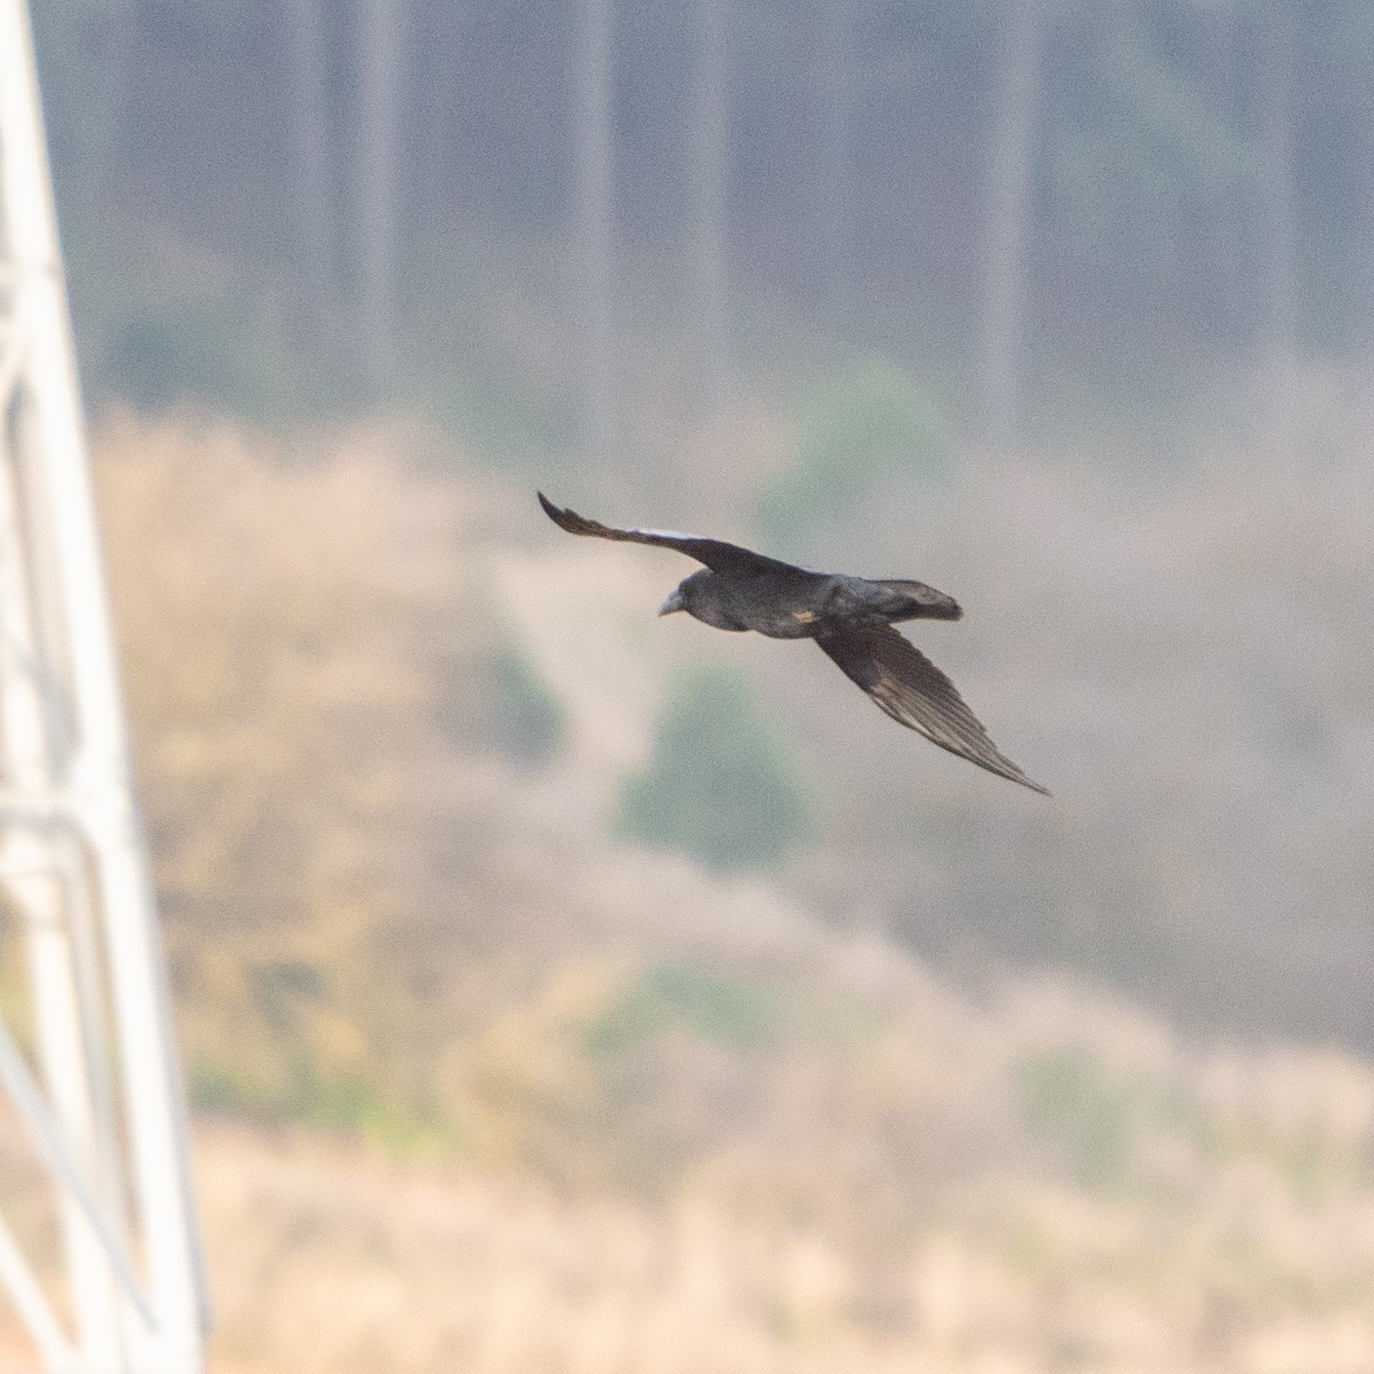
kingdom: Animalia
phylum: Chordata
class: Aves
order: Passeriformes
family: Corvidae
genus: Corvus
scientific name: Corvus corax
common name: Common raven
